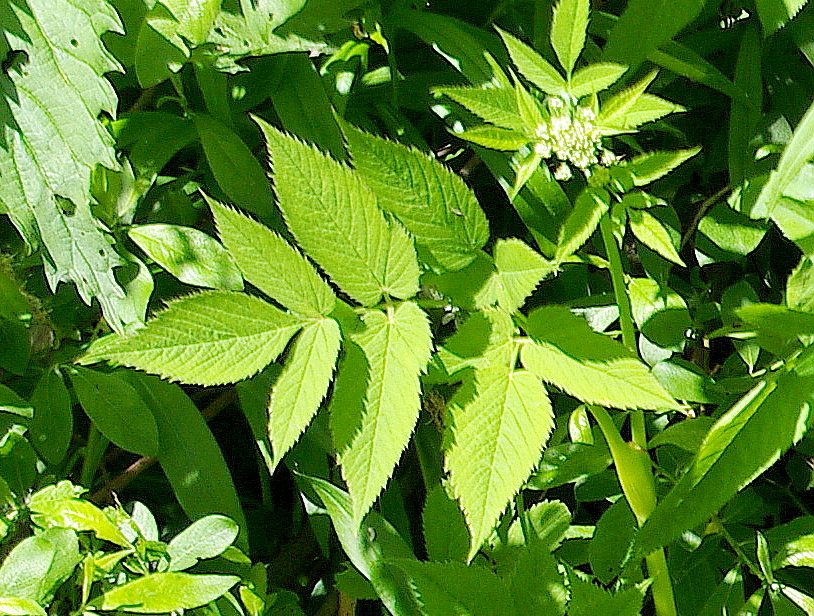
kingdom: Plantae
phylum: Tracheophyta
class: Magnoliopsida
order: Apiales
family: Apiaceae
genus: Aegopodium
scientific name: Aegopodium podagraria
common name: Ground-elder
